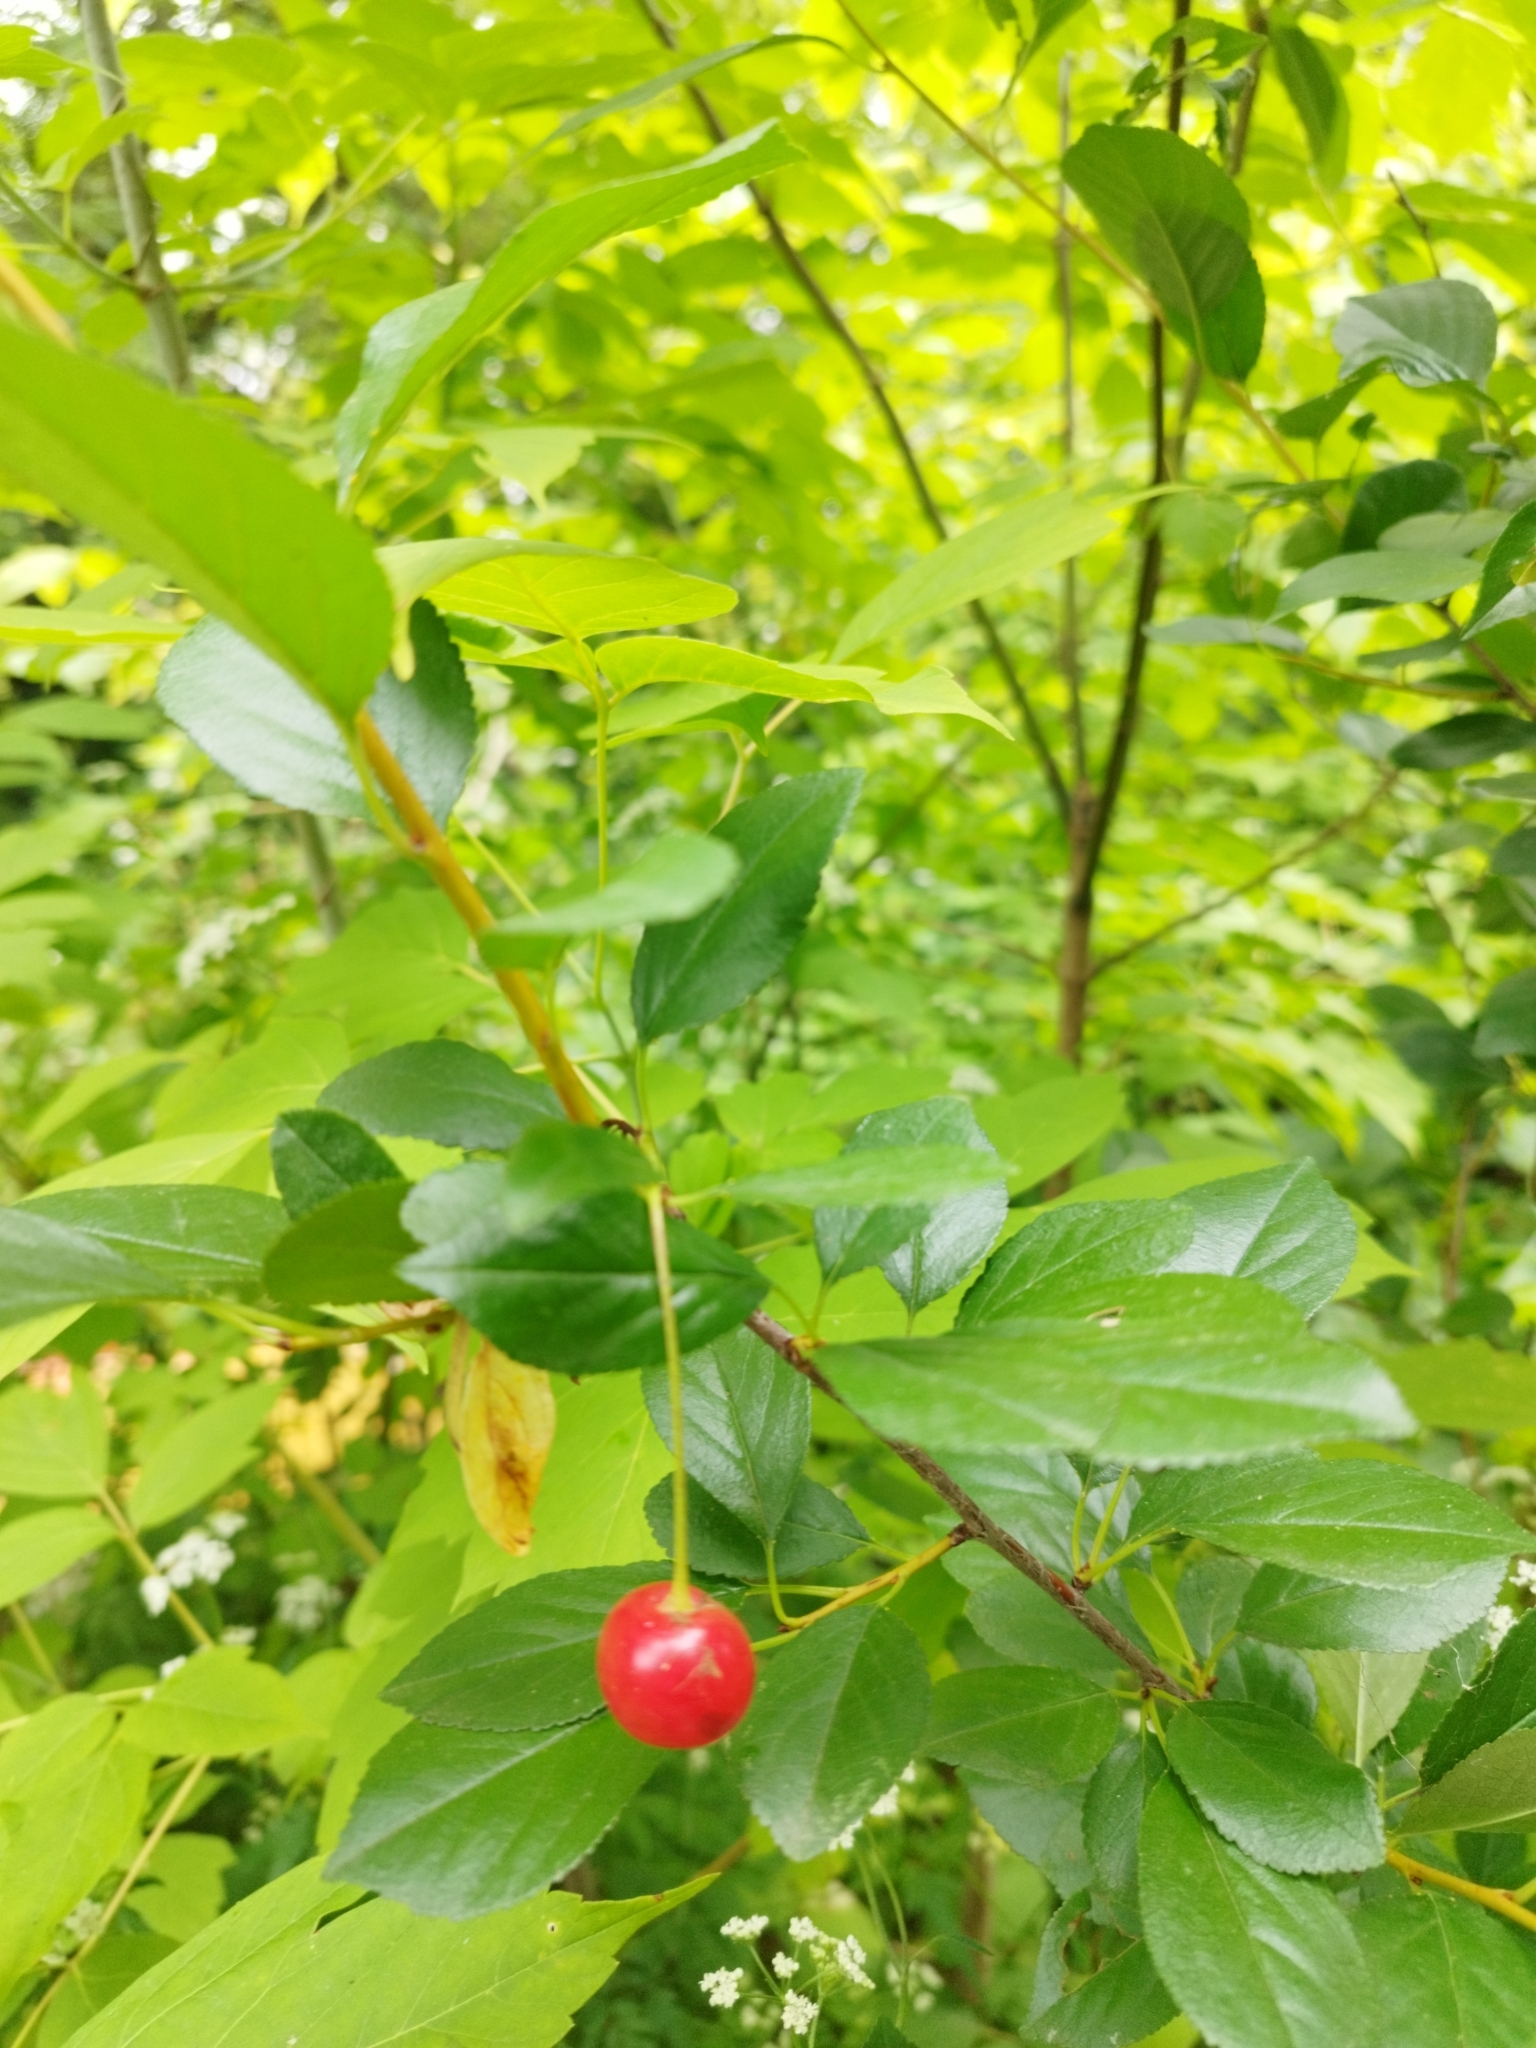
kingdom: Plantae
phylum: Tracheophyta
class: Magnoliopsida
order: Rosales
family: Rosaceae
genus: Prunus
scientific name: Prunus cerasus
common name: Morello cherry
